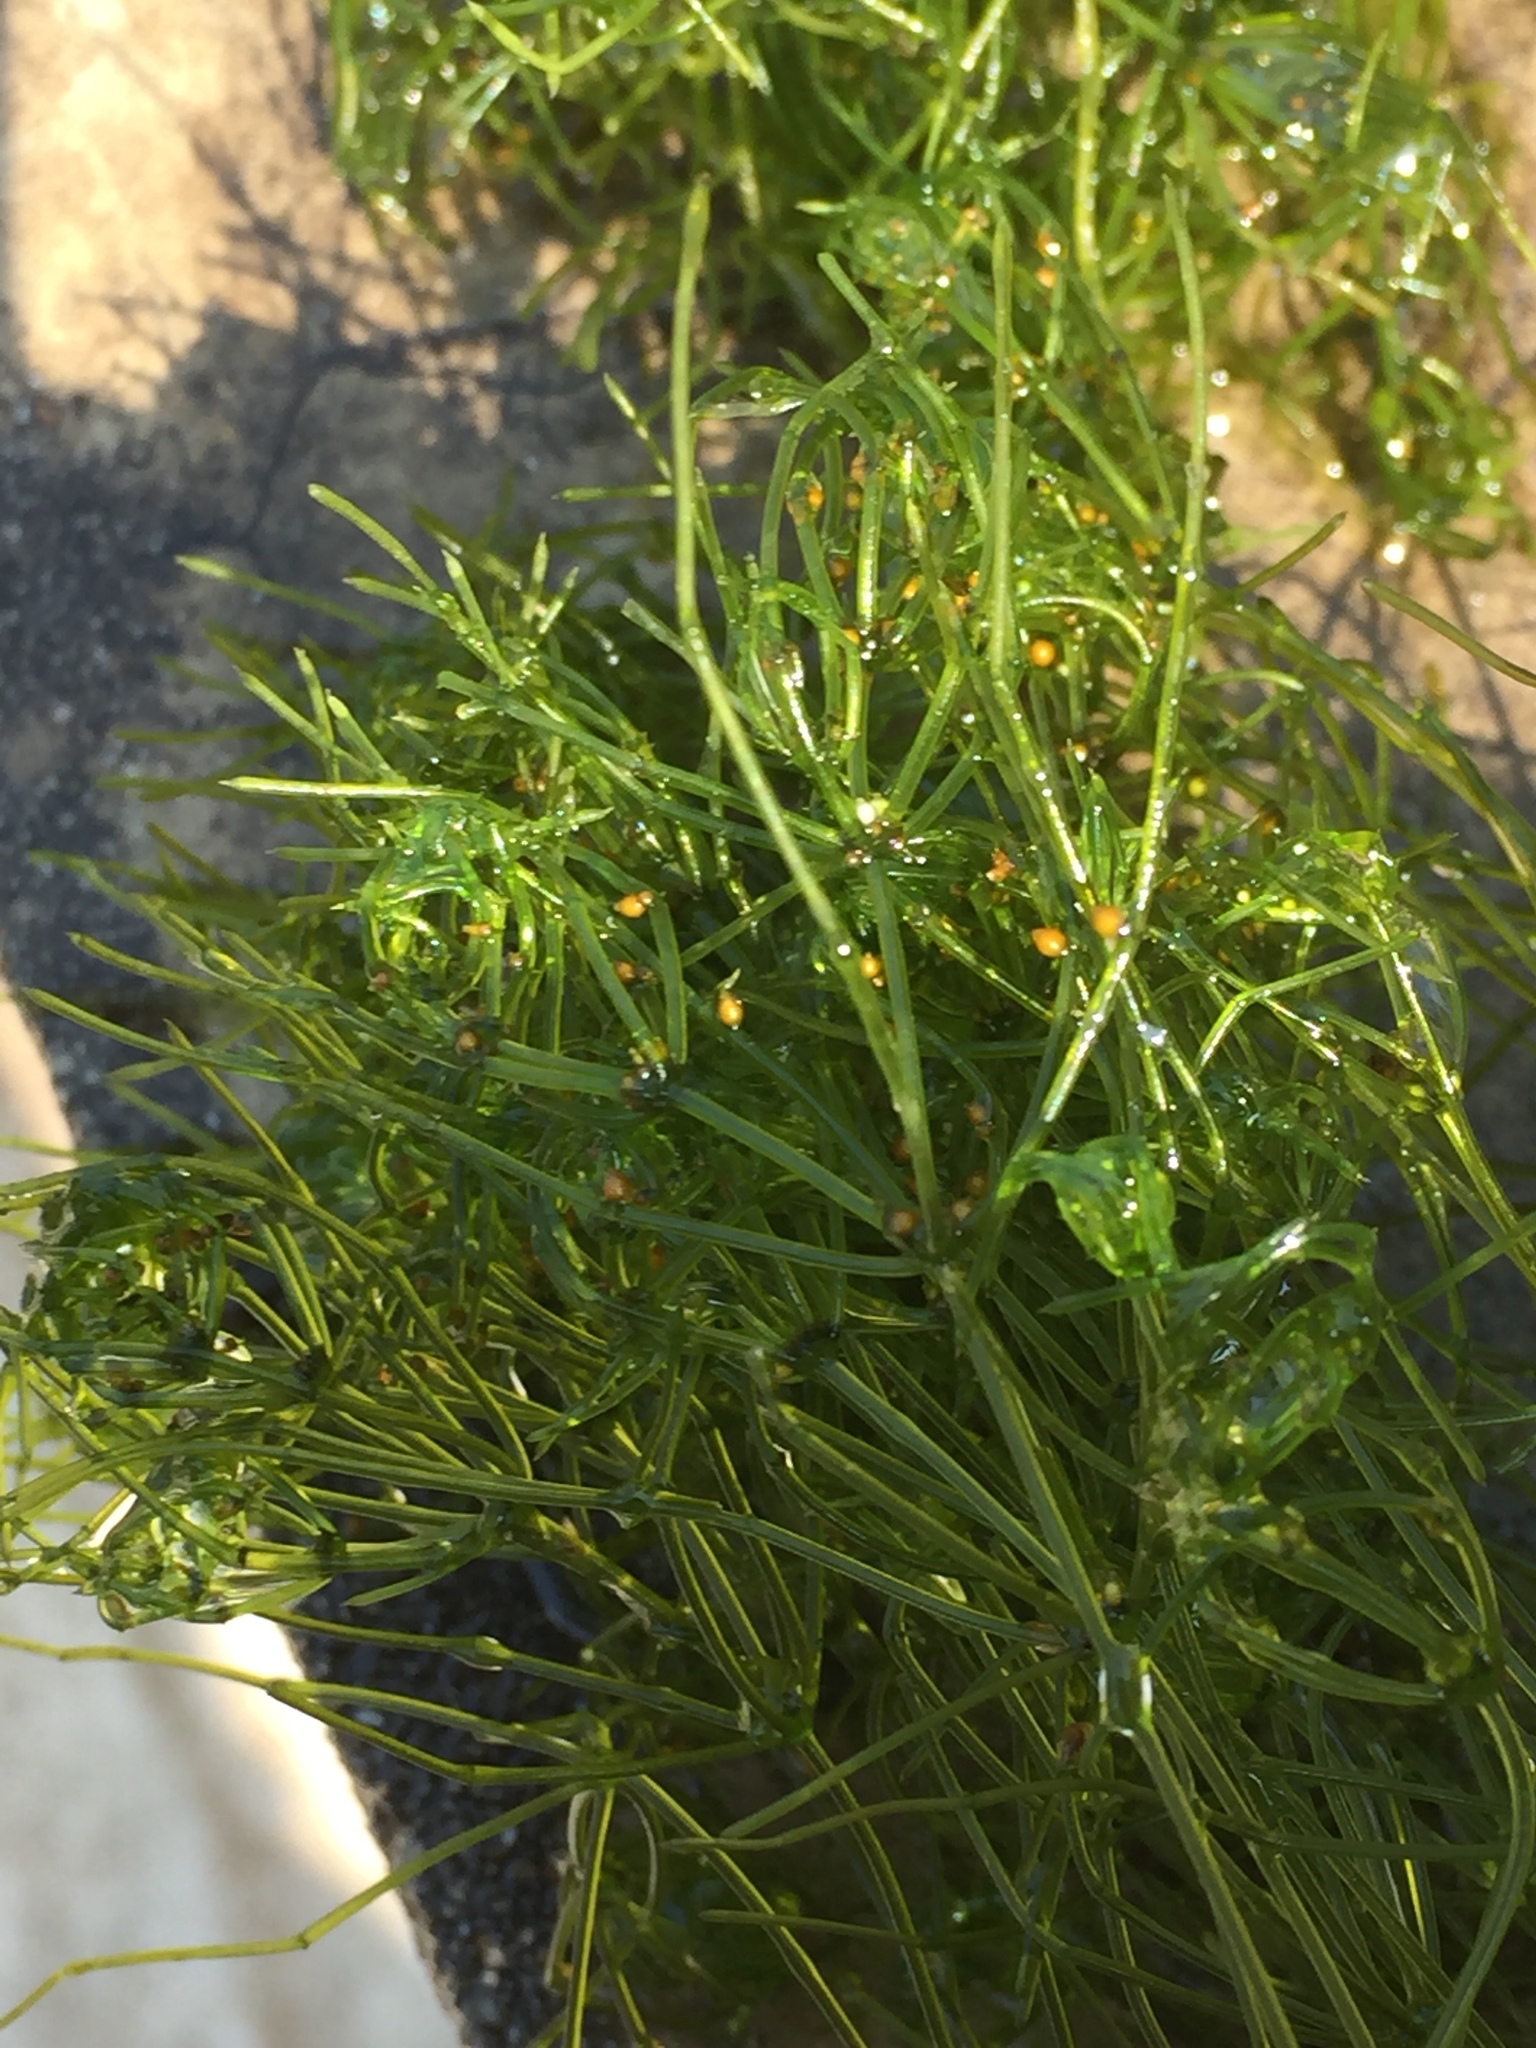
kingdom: Plantae
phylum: Charophyta
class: Charophyceae
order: Charales
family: Characeae
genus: Chara
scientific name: Chara corallina
